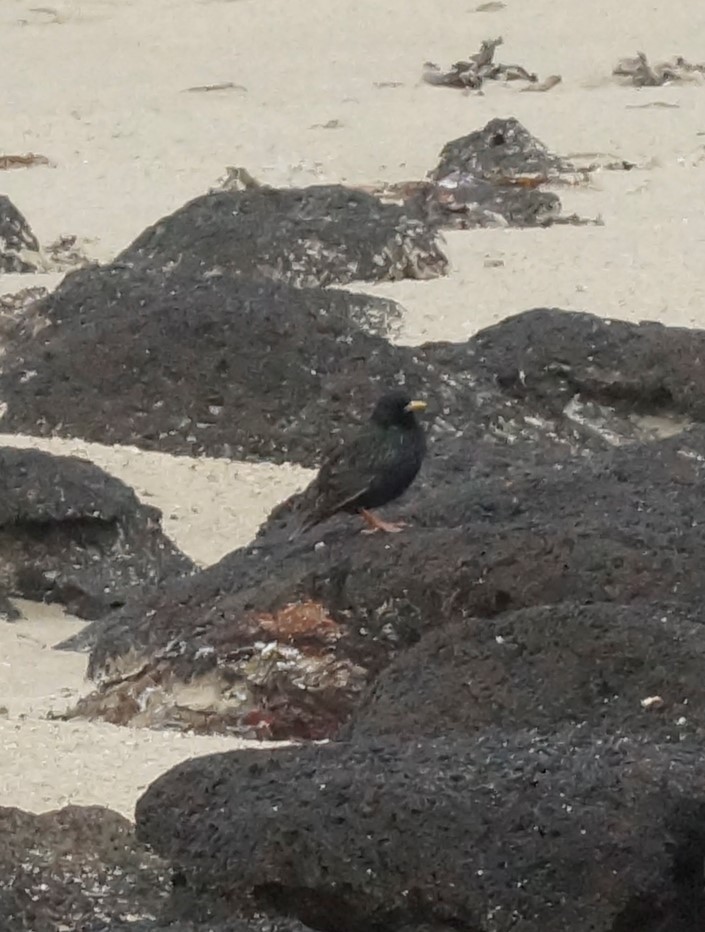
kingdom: Animalia
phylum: Chordata
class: Aves
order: Passeriformes
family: Sturnidae
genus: Sturnus
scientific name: Sturnus vulgaris
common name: Common starling
